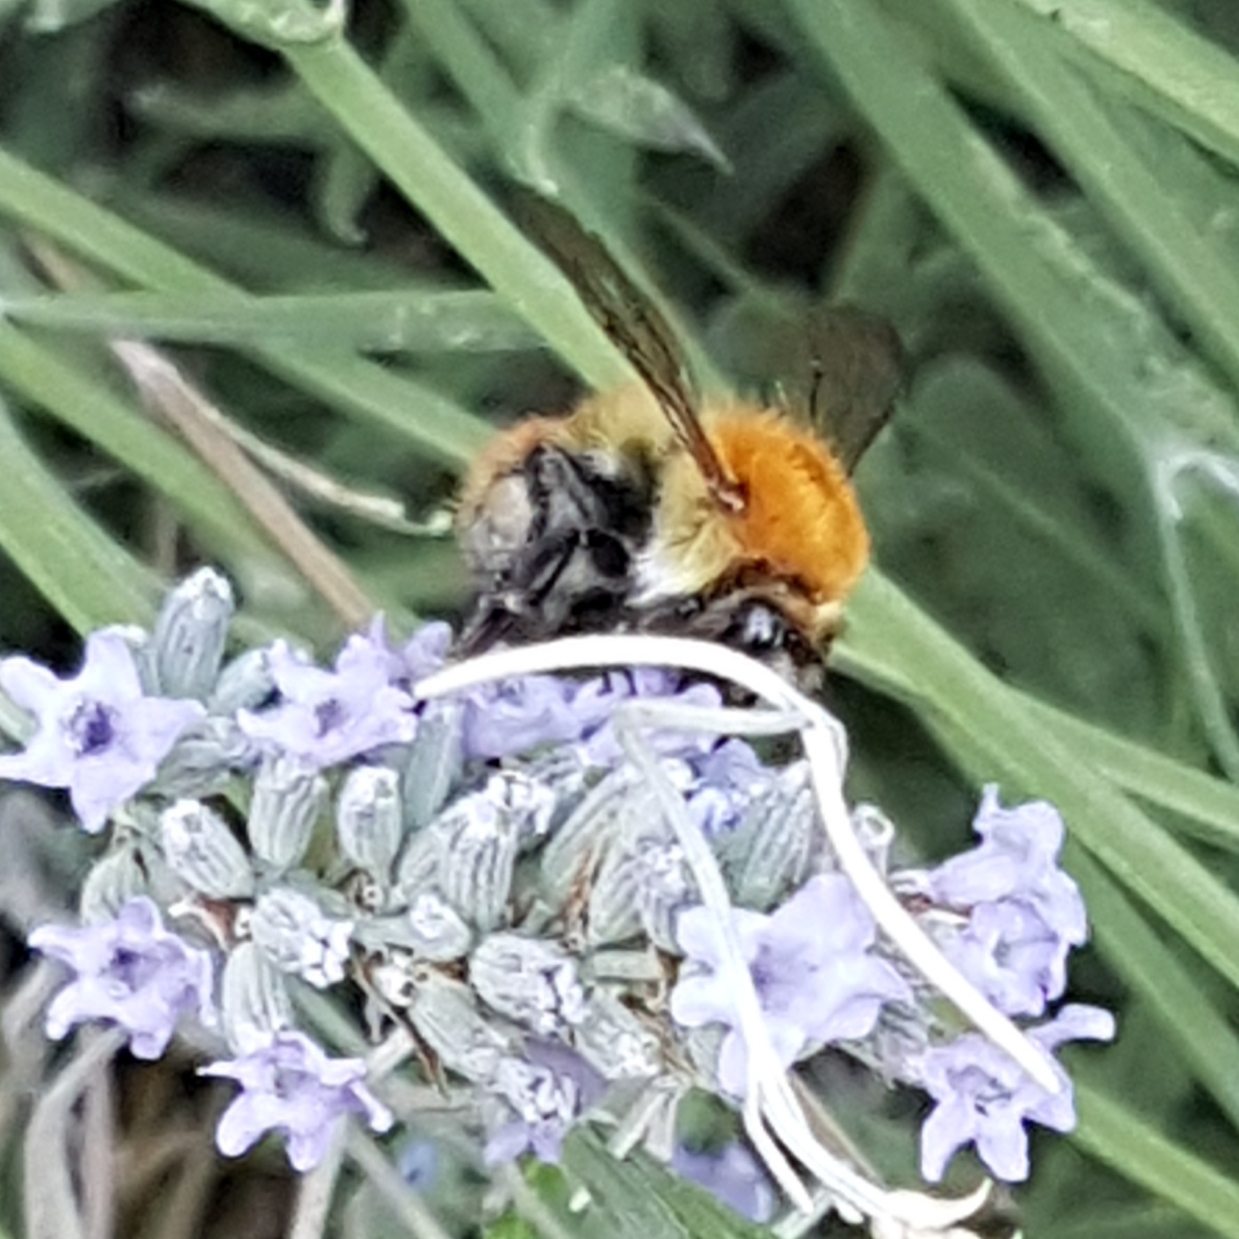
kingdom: Animalia
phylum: Arthropoda
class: Insecta
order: Hymenoptera
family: Apidae
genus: Bombus
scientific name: Bombus pascuorum
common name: Common carder bee
